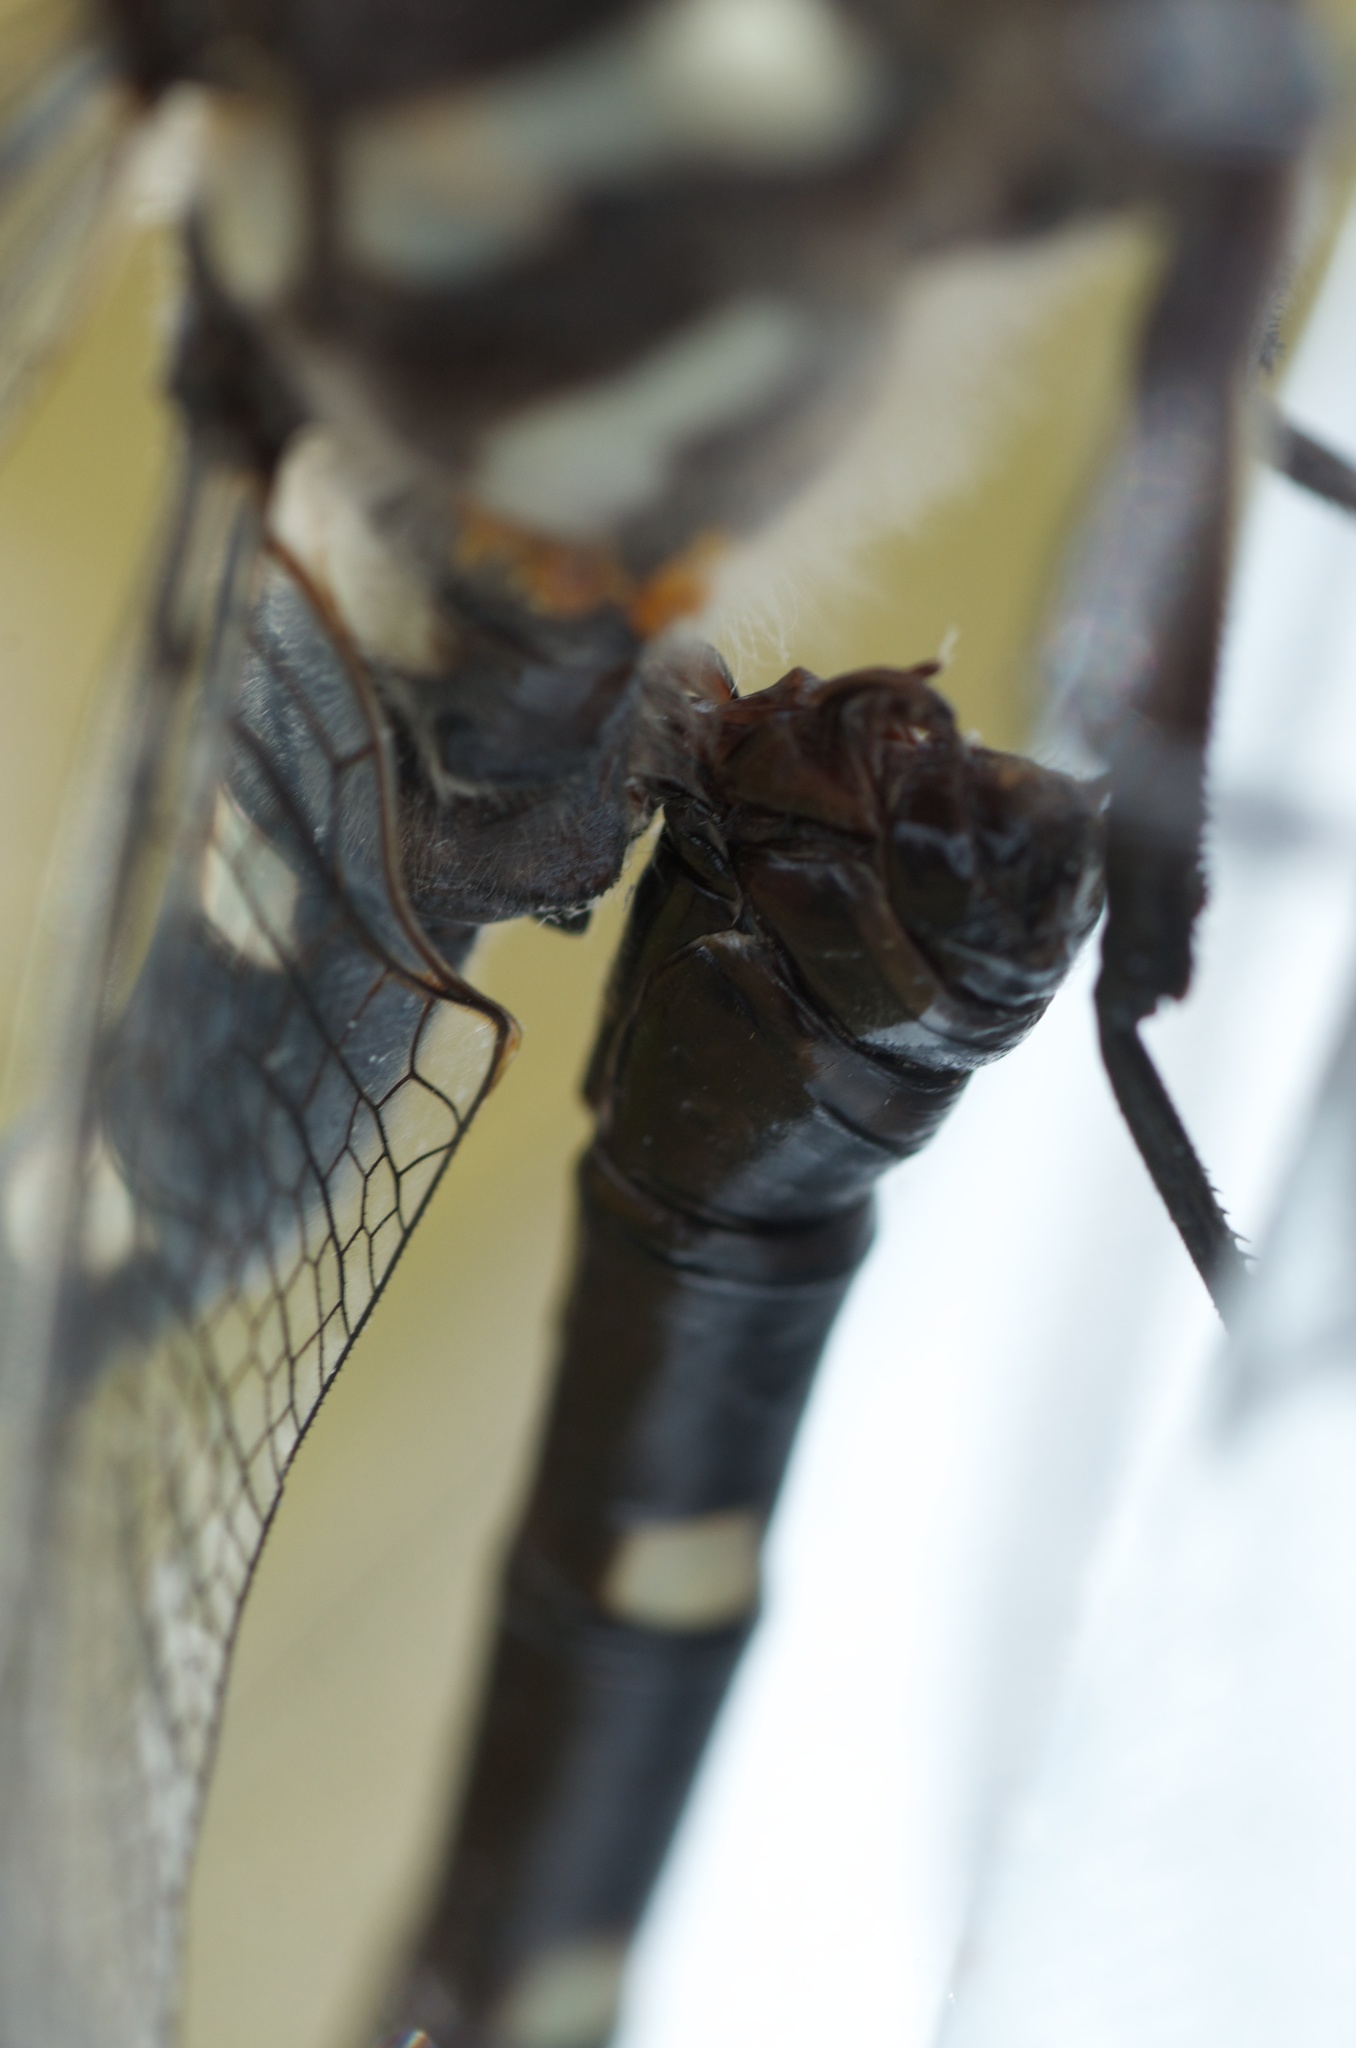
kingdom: Animalia
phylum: Arthropoda
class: Insecta
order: Odonata
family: Petaluridae
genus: Uropetala
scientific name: Uropetala chiltoni
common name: Mountain giant dragonfly
